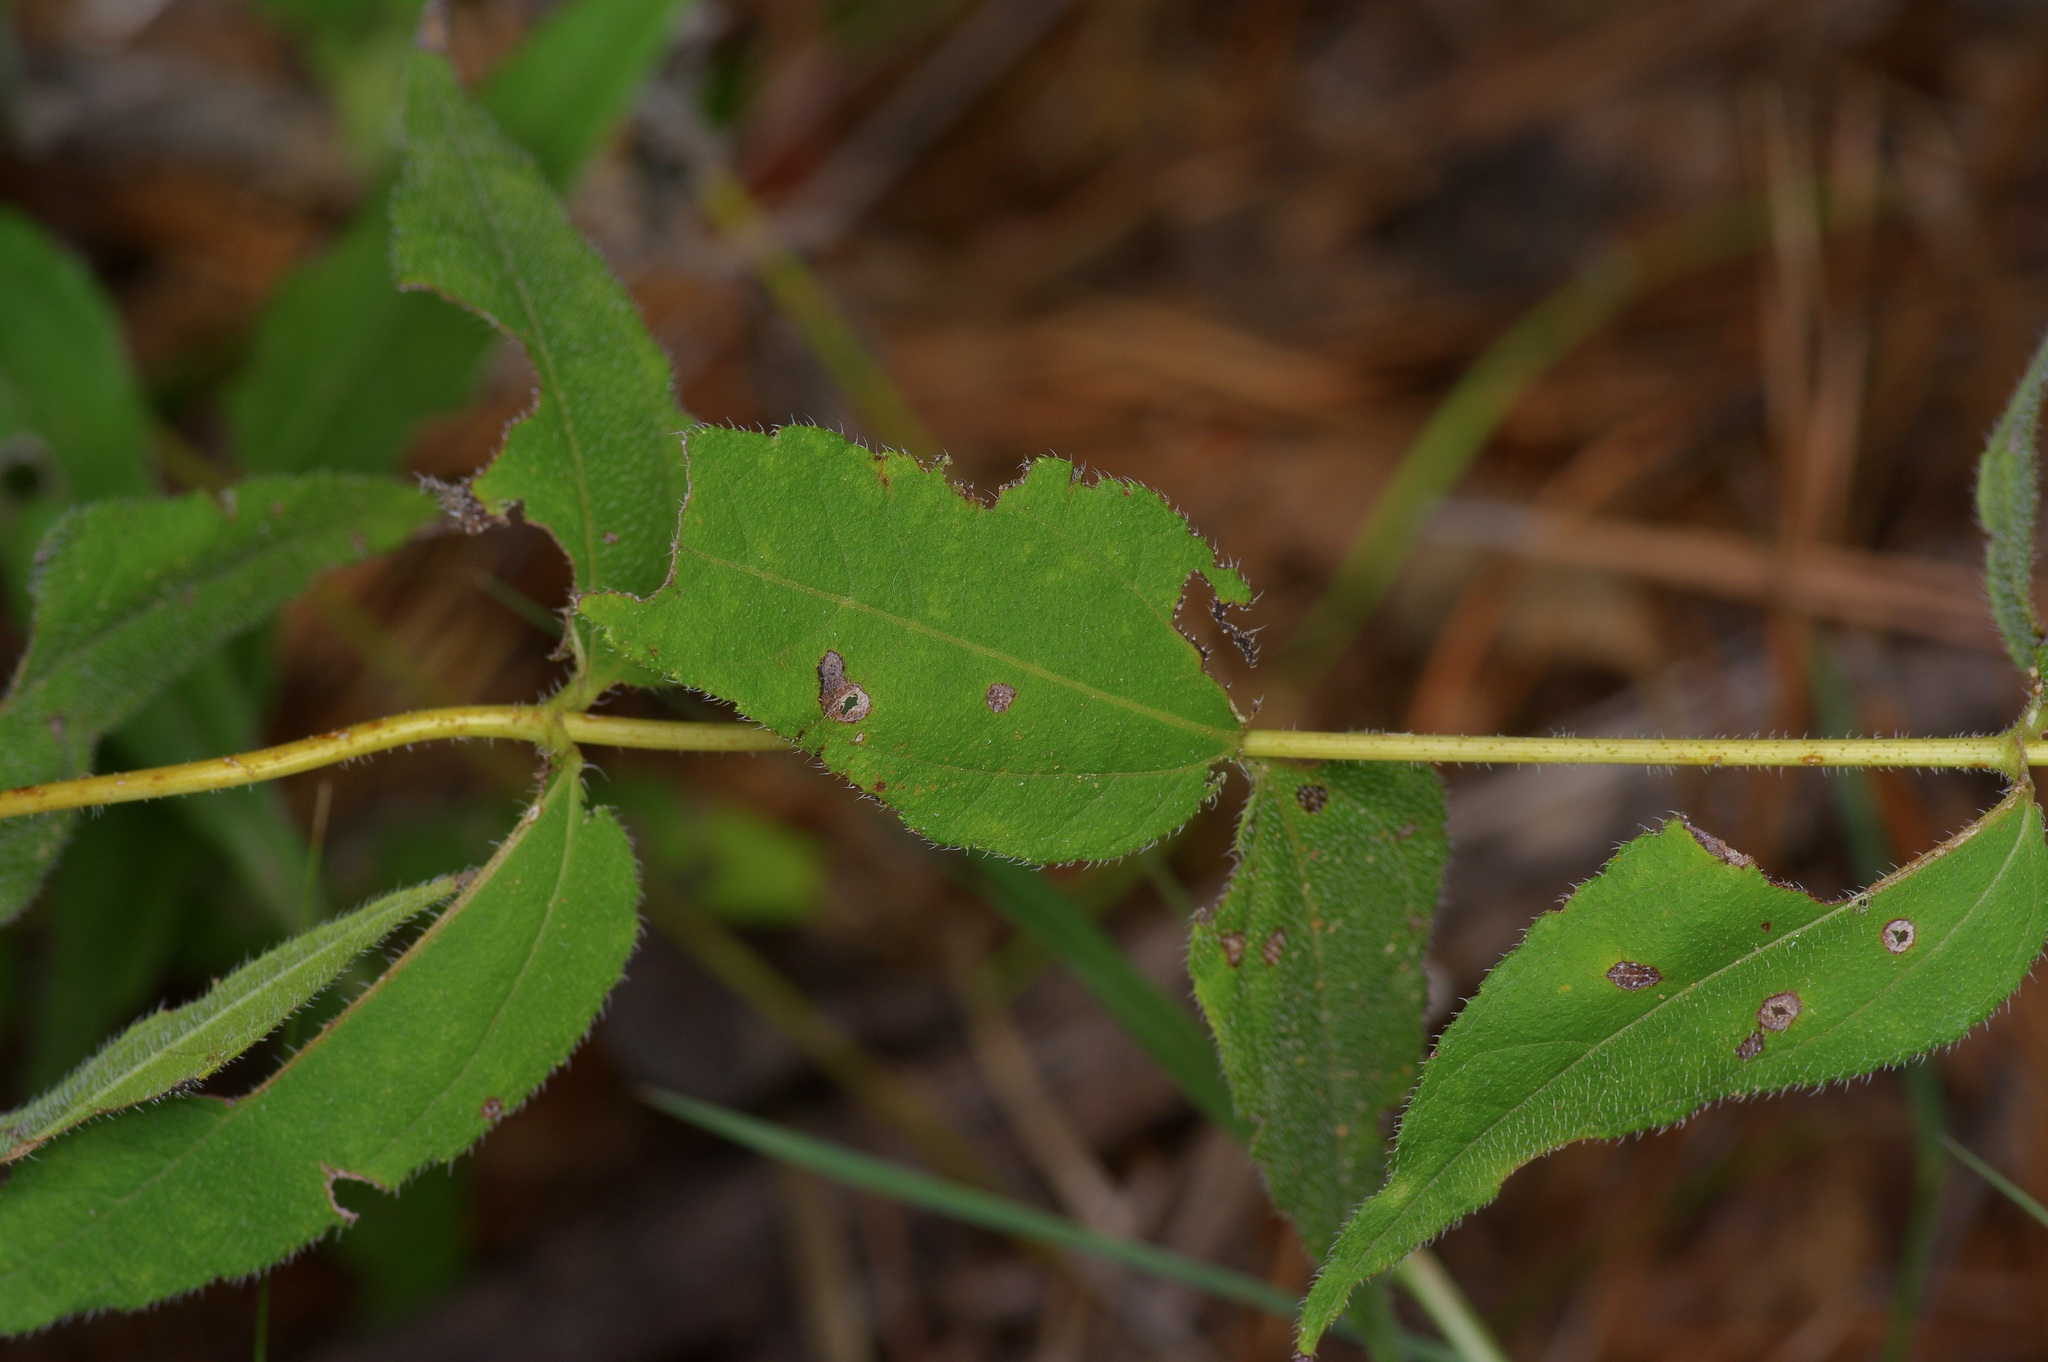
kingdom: Plantae
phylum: Tracheophyta
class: Magnoliopsida
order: Asterales
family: Asteraceae
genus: Helianthus
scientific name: Helianthus hirsutus
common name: Hairy sunflower
